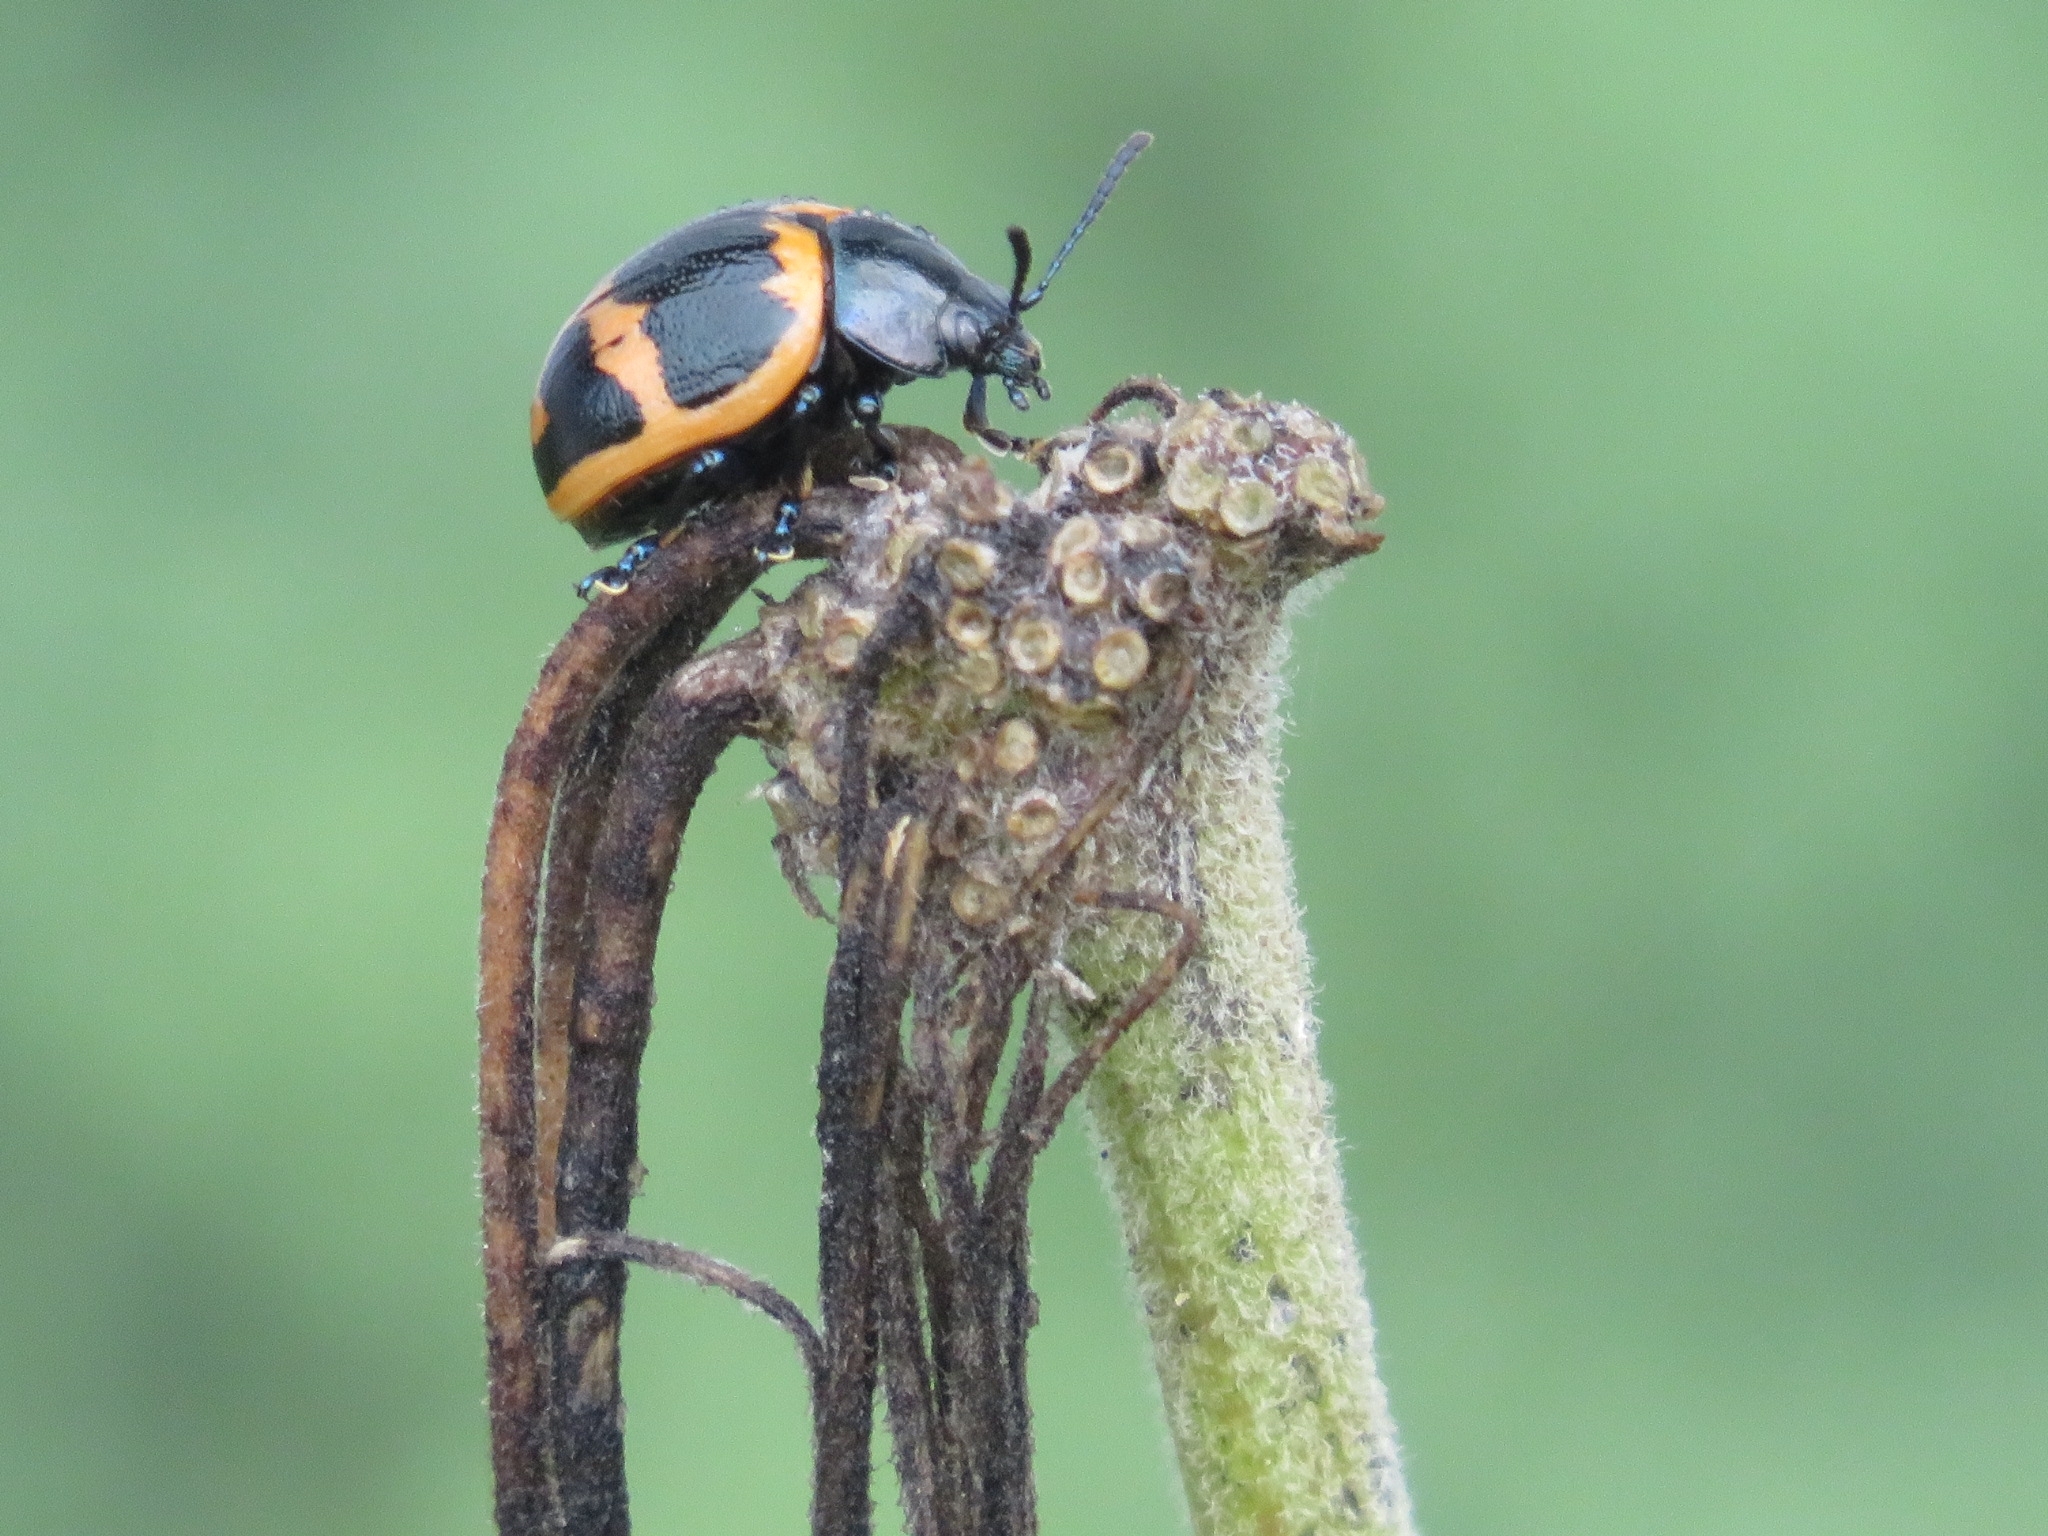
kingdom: Animalia
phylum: Arthropoda
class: Insecta
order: Coleoptera
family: Chrysomelidae
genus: Labidomera
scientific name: Labidomera clivicollis
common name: Swamp milkweed leaf beetle
